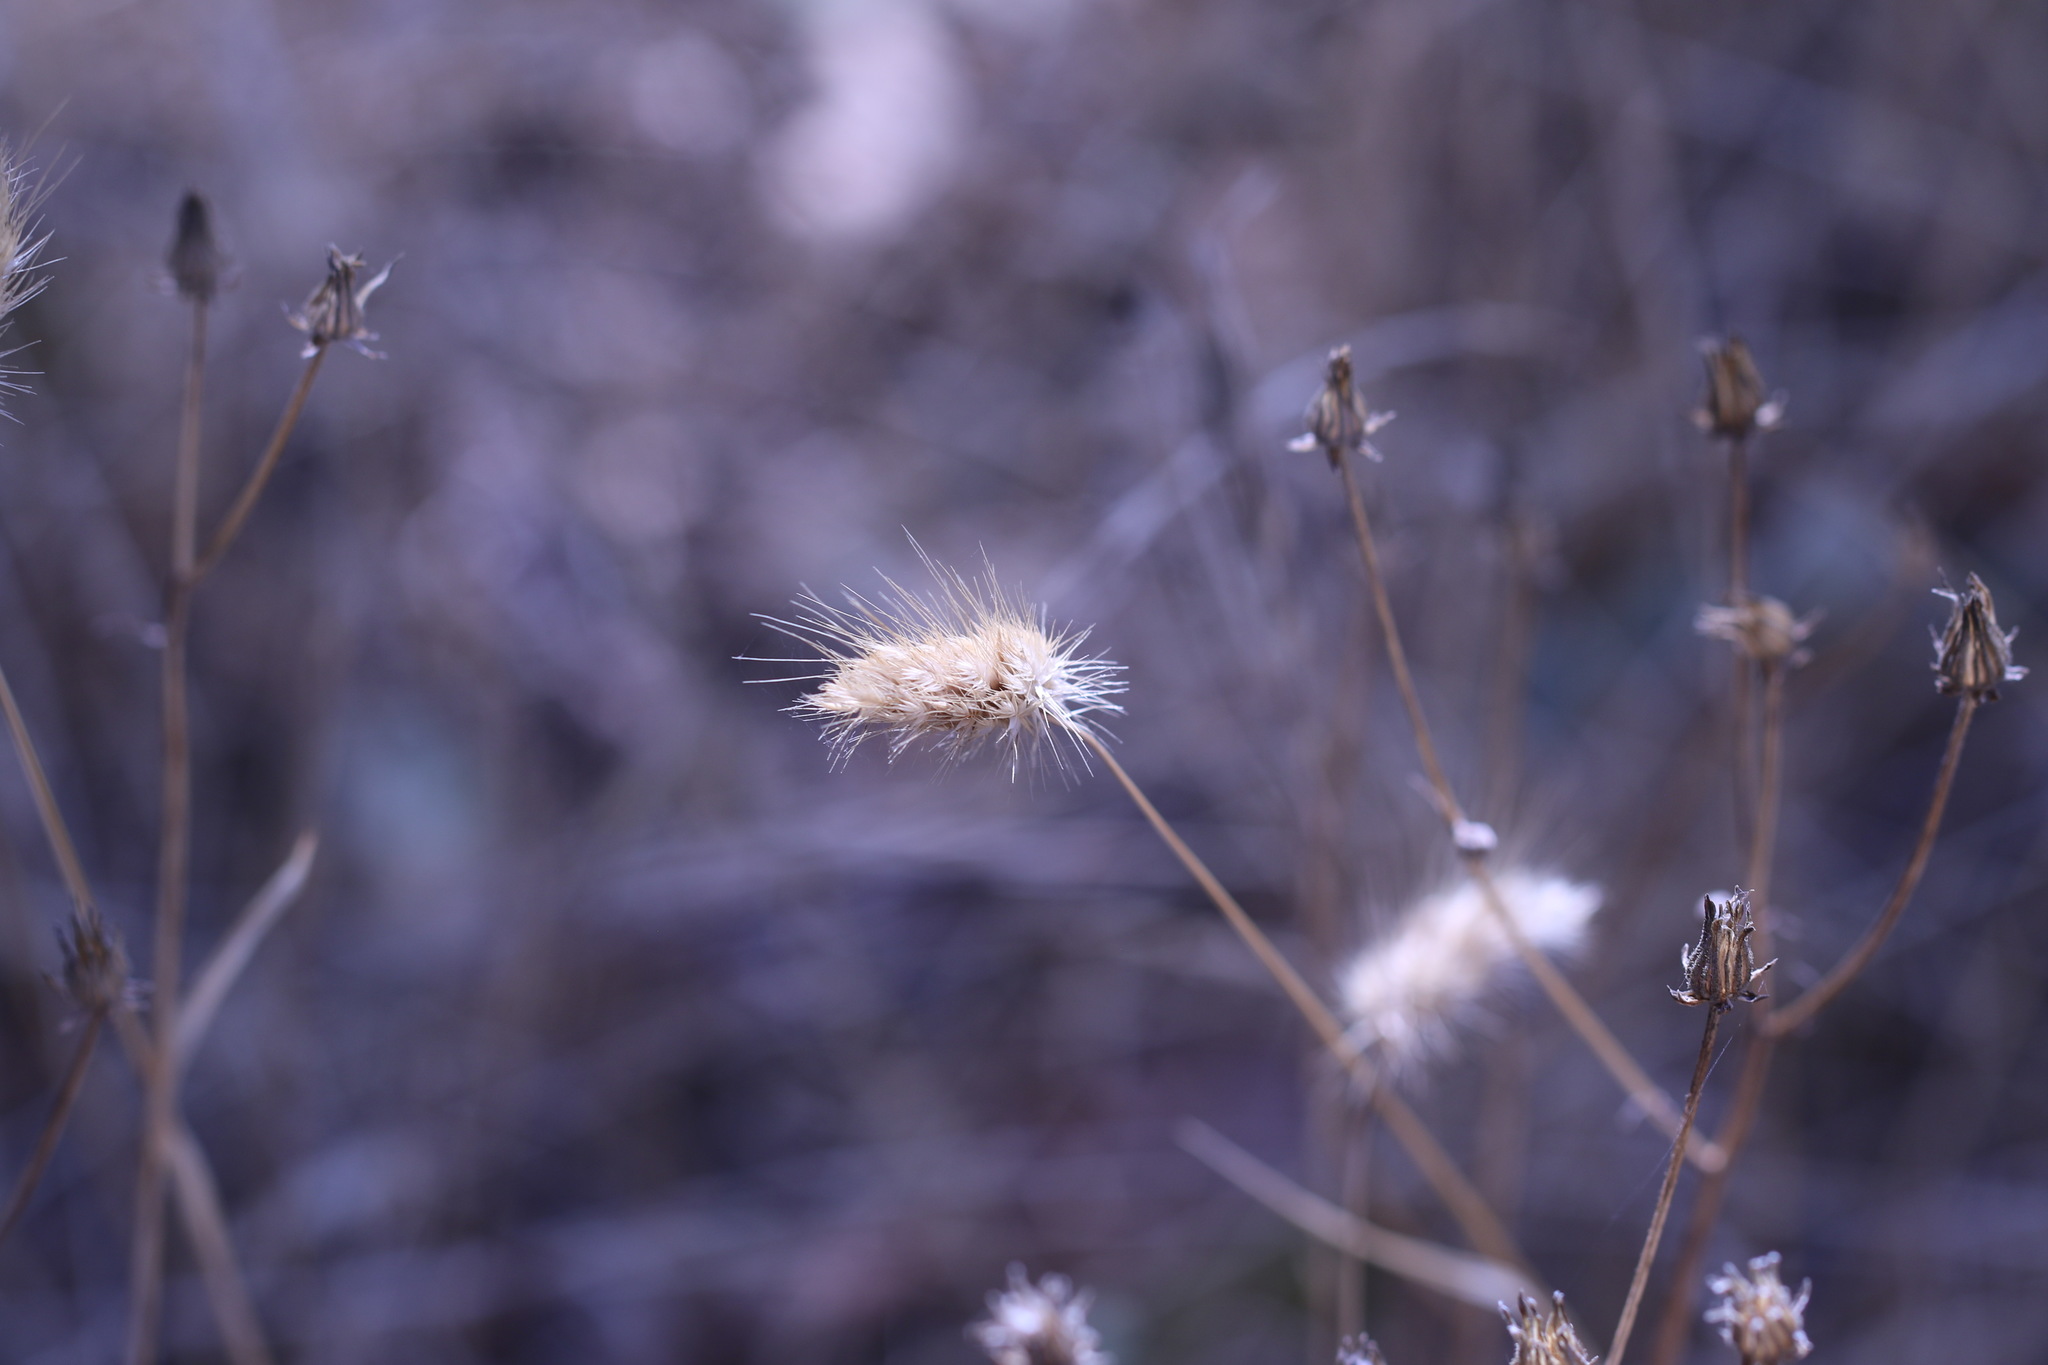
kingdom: Plantae
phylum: Tracheophyta
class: Liliopsida
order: Poales
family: Poaceae
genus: Cynosurus
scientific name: Cynosurus echinatus
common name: Rough dog's-tail
